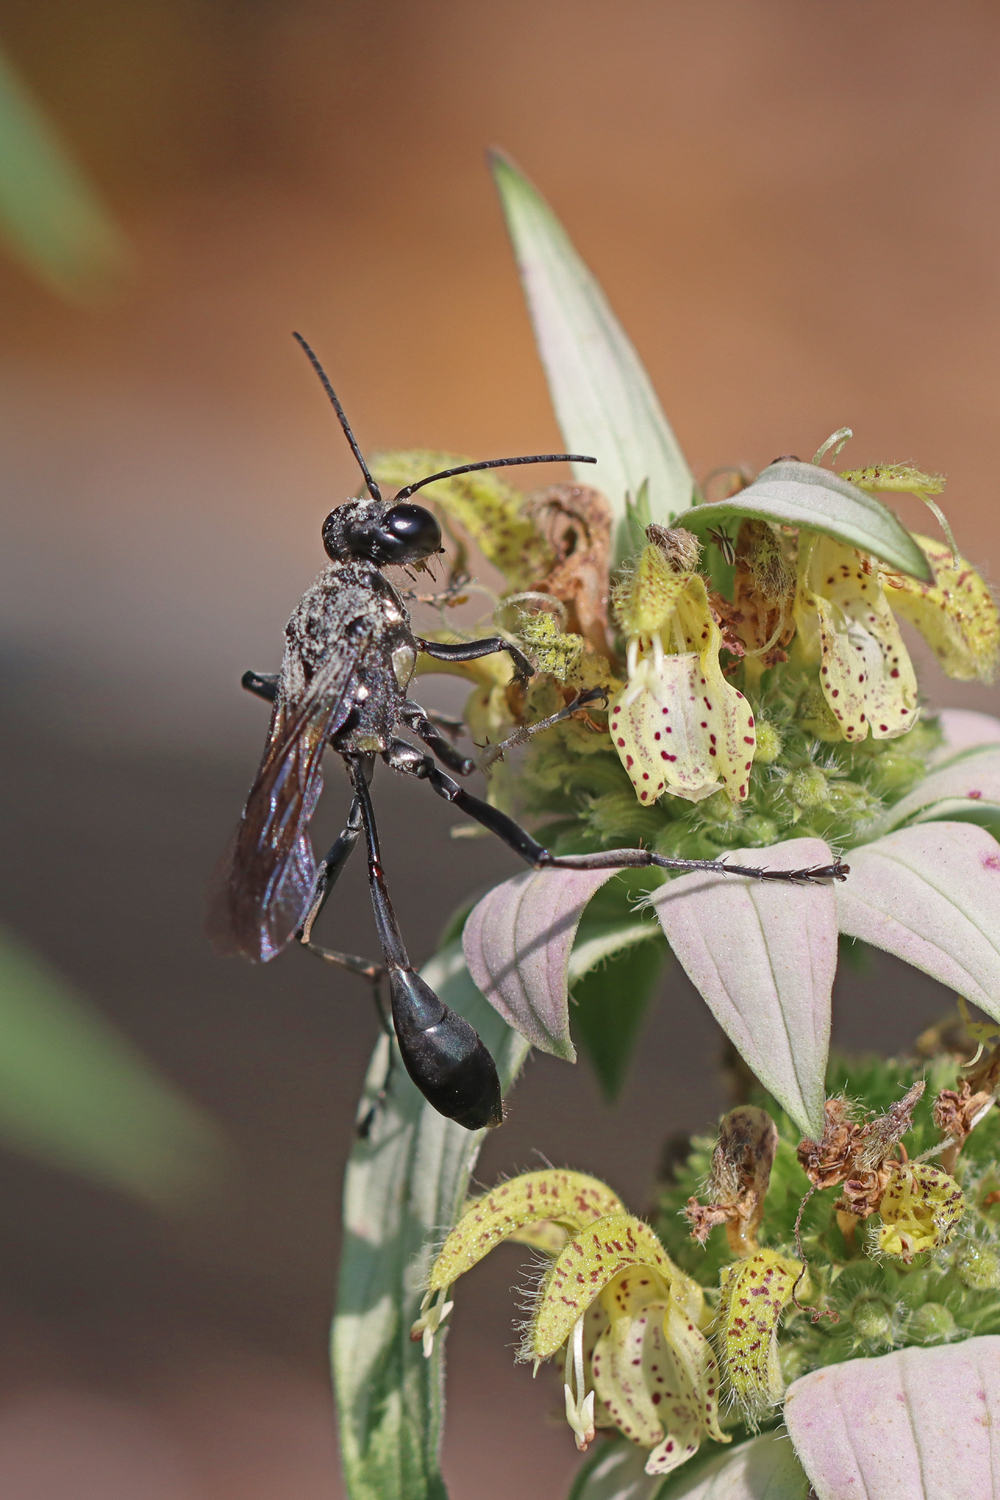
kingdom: Animalia
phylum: Arthropoda
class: Insecta
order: Hymenoptera
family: Sphecidae
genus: Eremnophila
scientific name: Eremnophila aureonotata
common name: Gold-marked thread-waisted wasp
